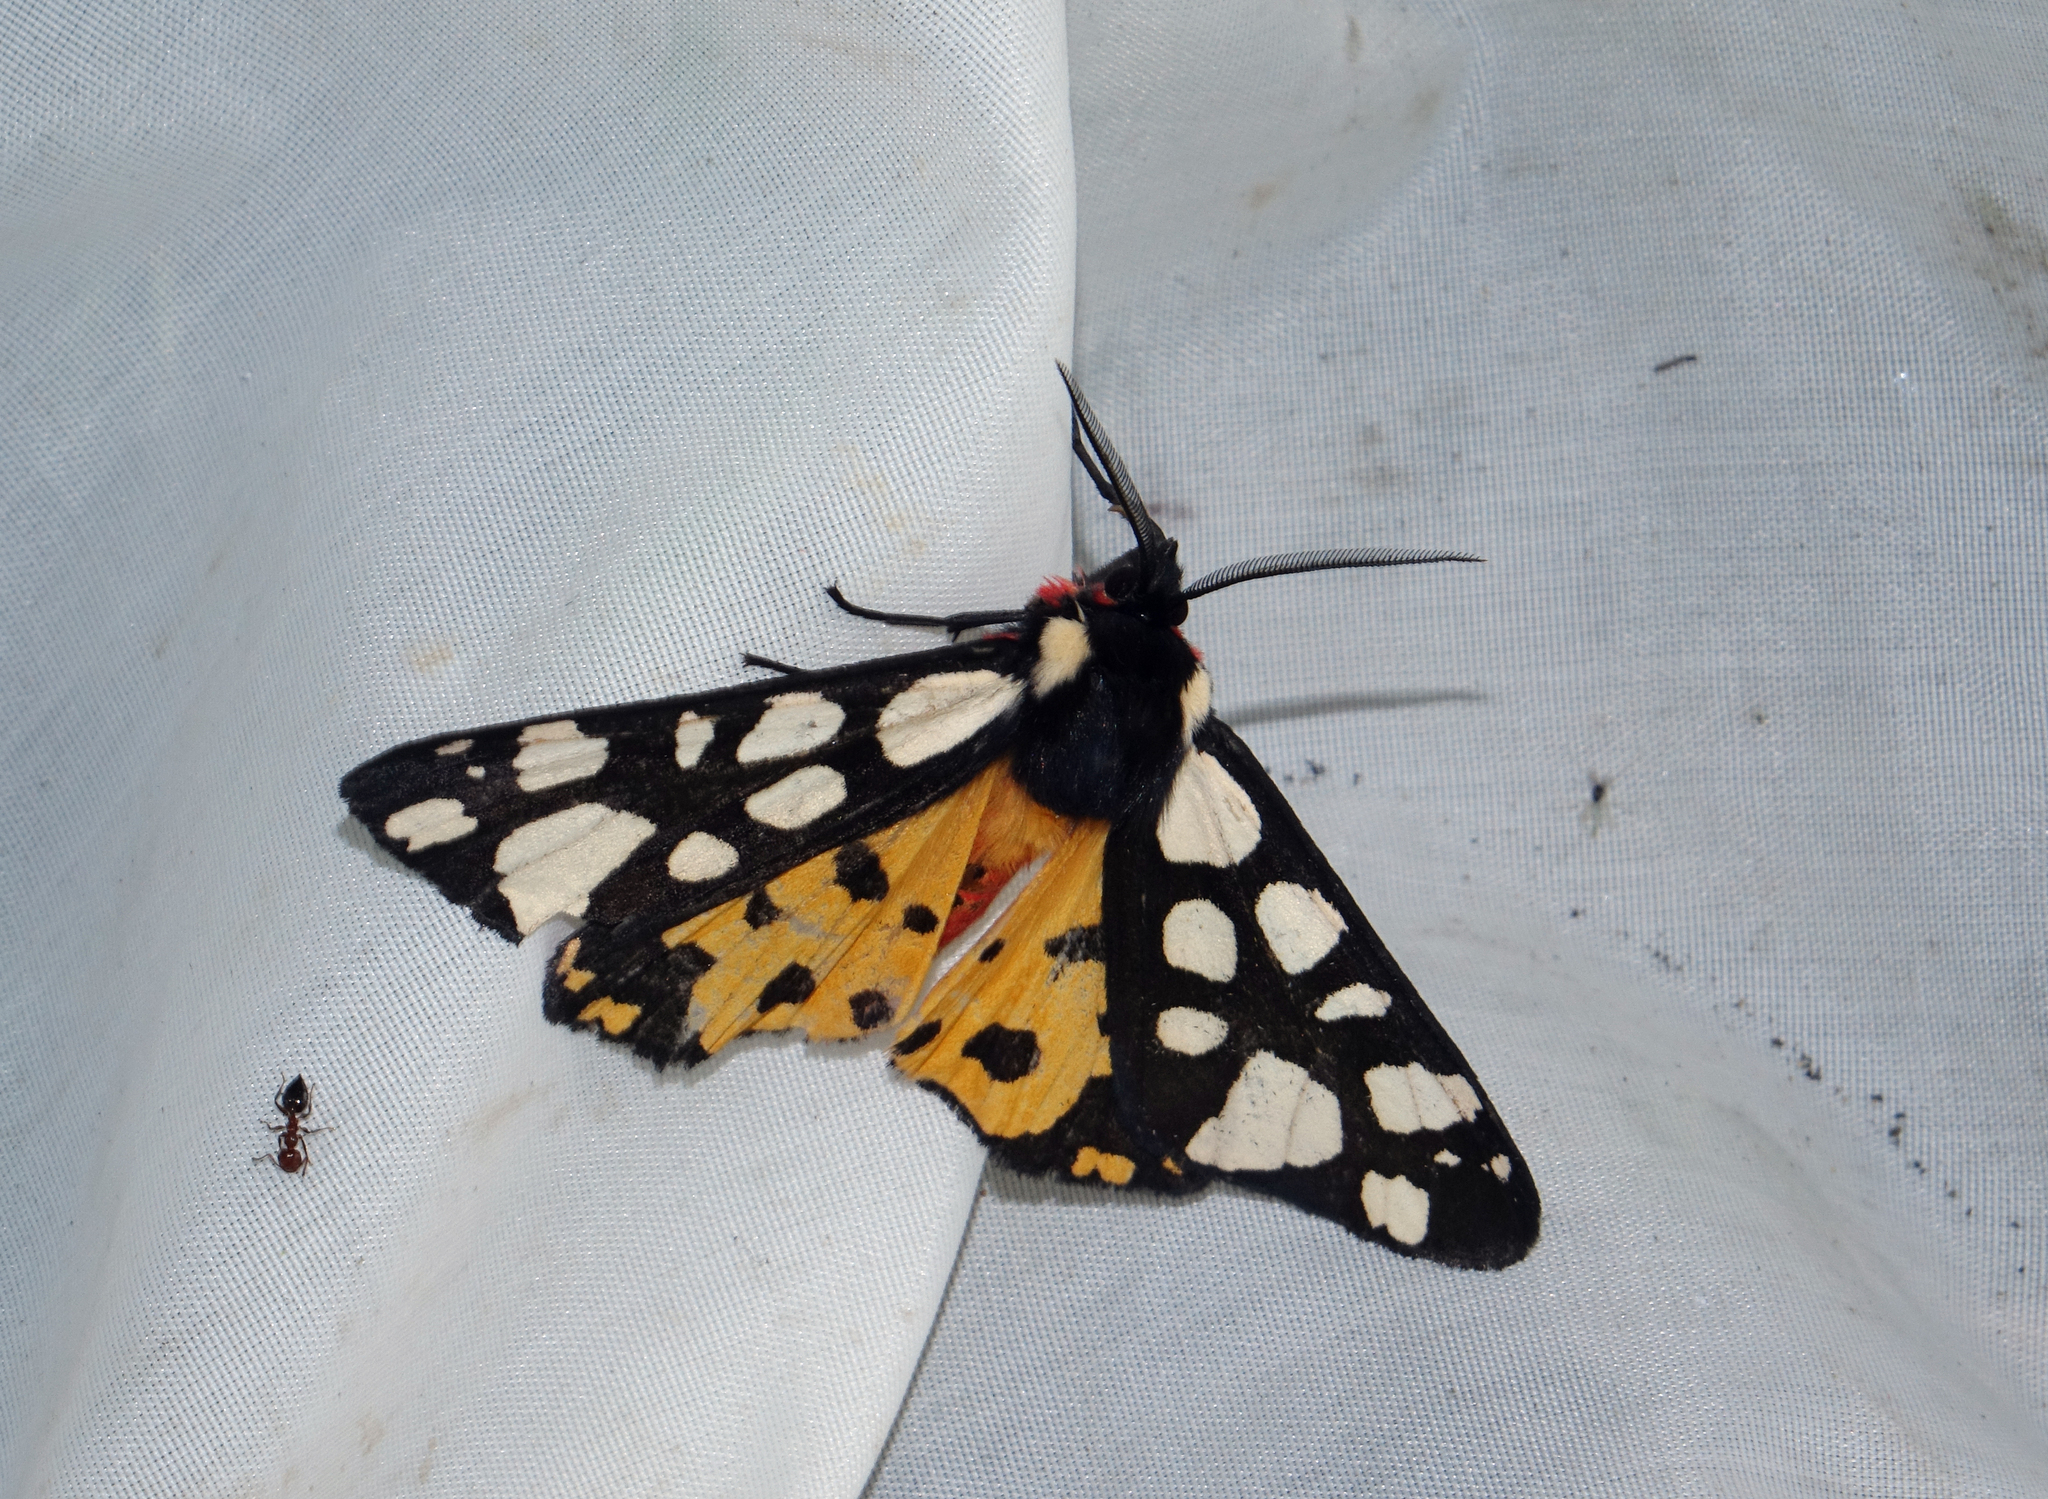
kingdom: Animalia
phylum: Arthropoda
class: Insecta
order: Lepidoptera
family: Erebidae
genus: Epicallia
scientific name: Epicallia villica
